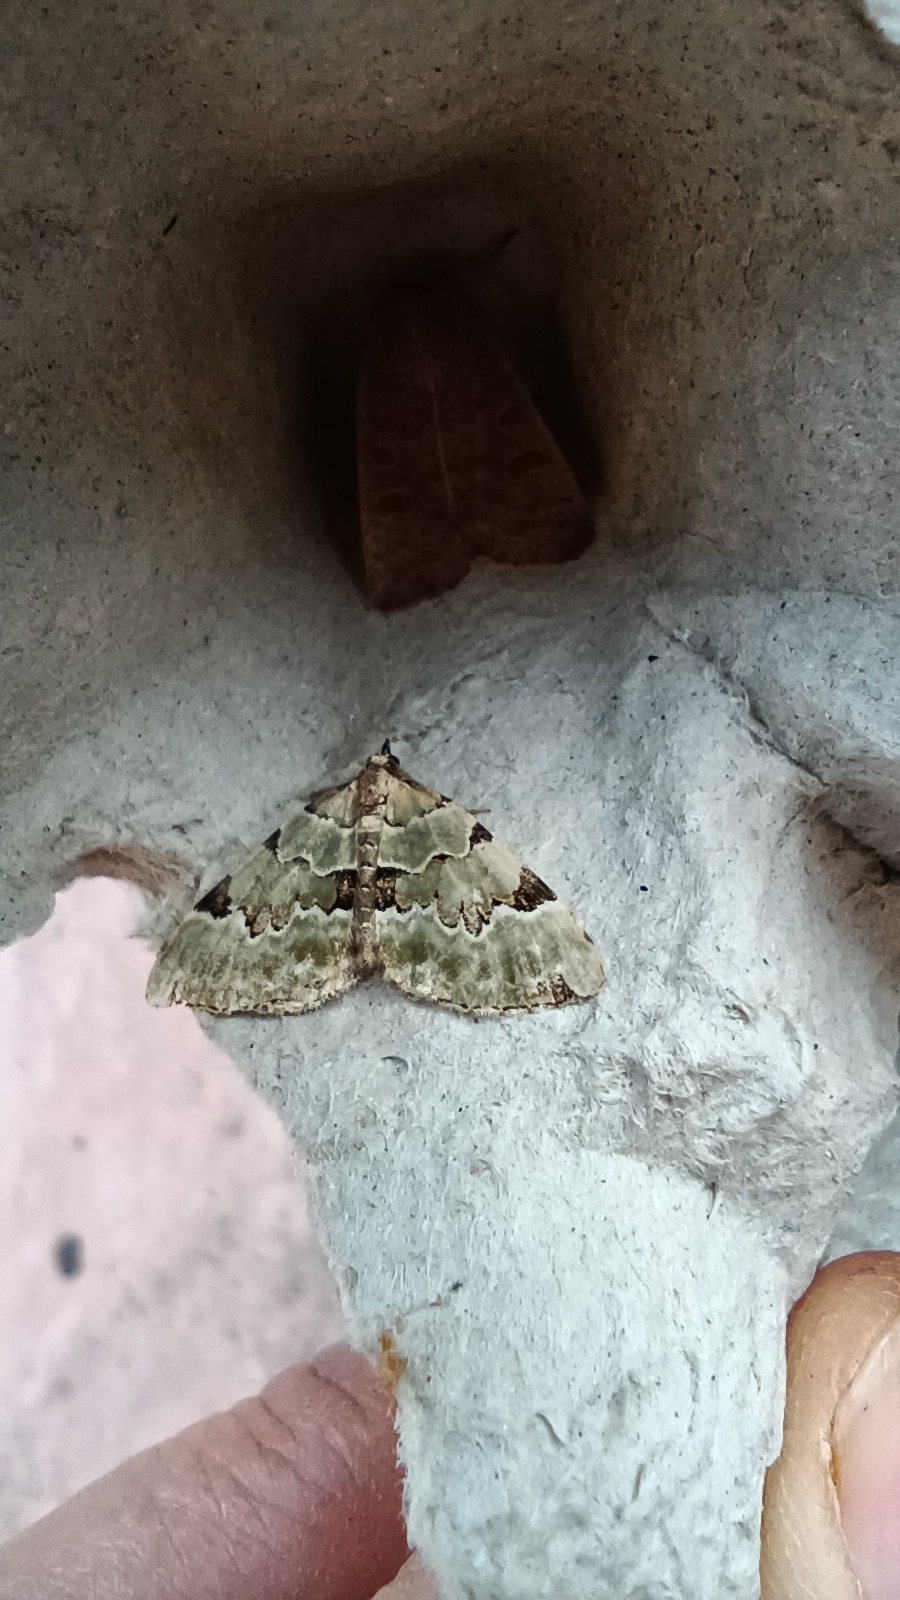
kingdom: Animalia
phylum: Arthropoda
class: Insecta
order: Lepidoptera
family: Geometridae
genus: Colostygia
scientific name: Colostygia pectinataria
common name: Green carpet
